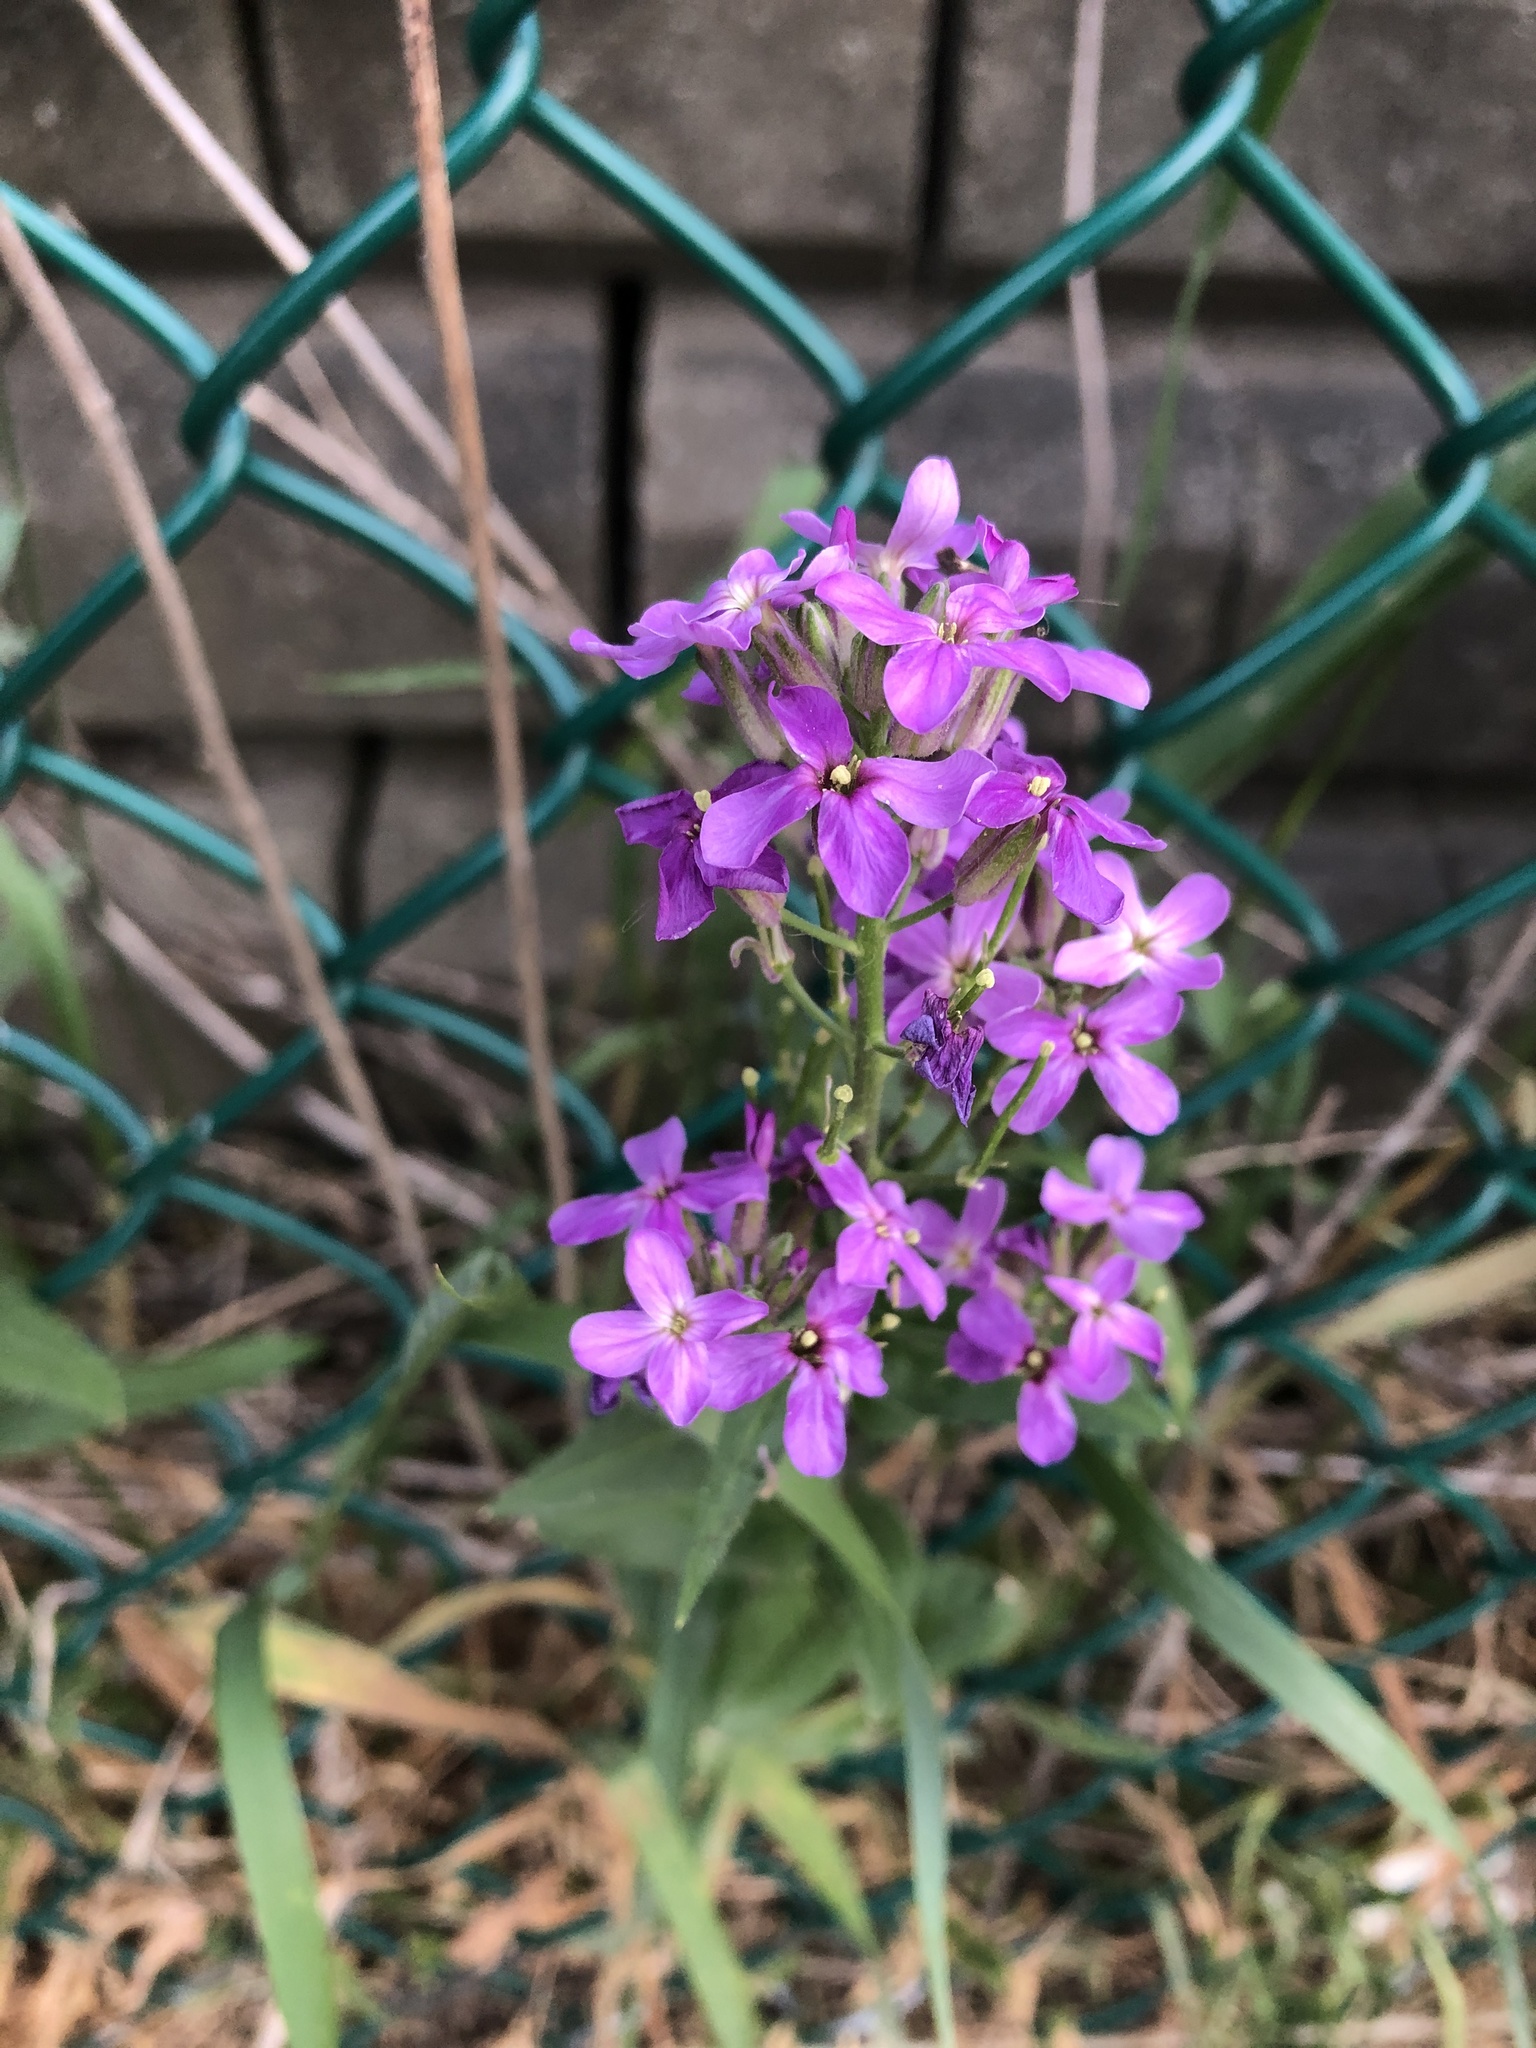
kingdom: Plantae
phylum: Tracheophyta
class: Magnoliopsida
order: Brassicales
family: Brassicaceae
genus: Hesperis
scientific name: Hesperis matronalis
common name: Dame's-violet
